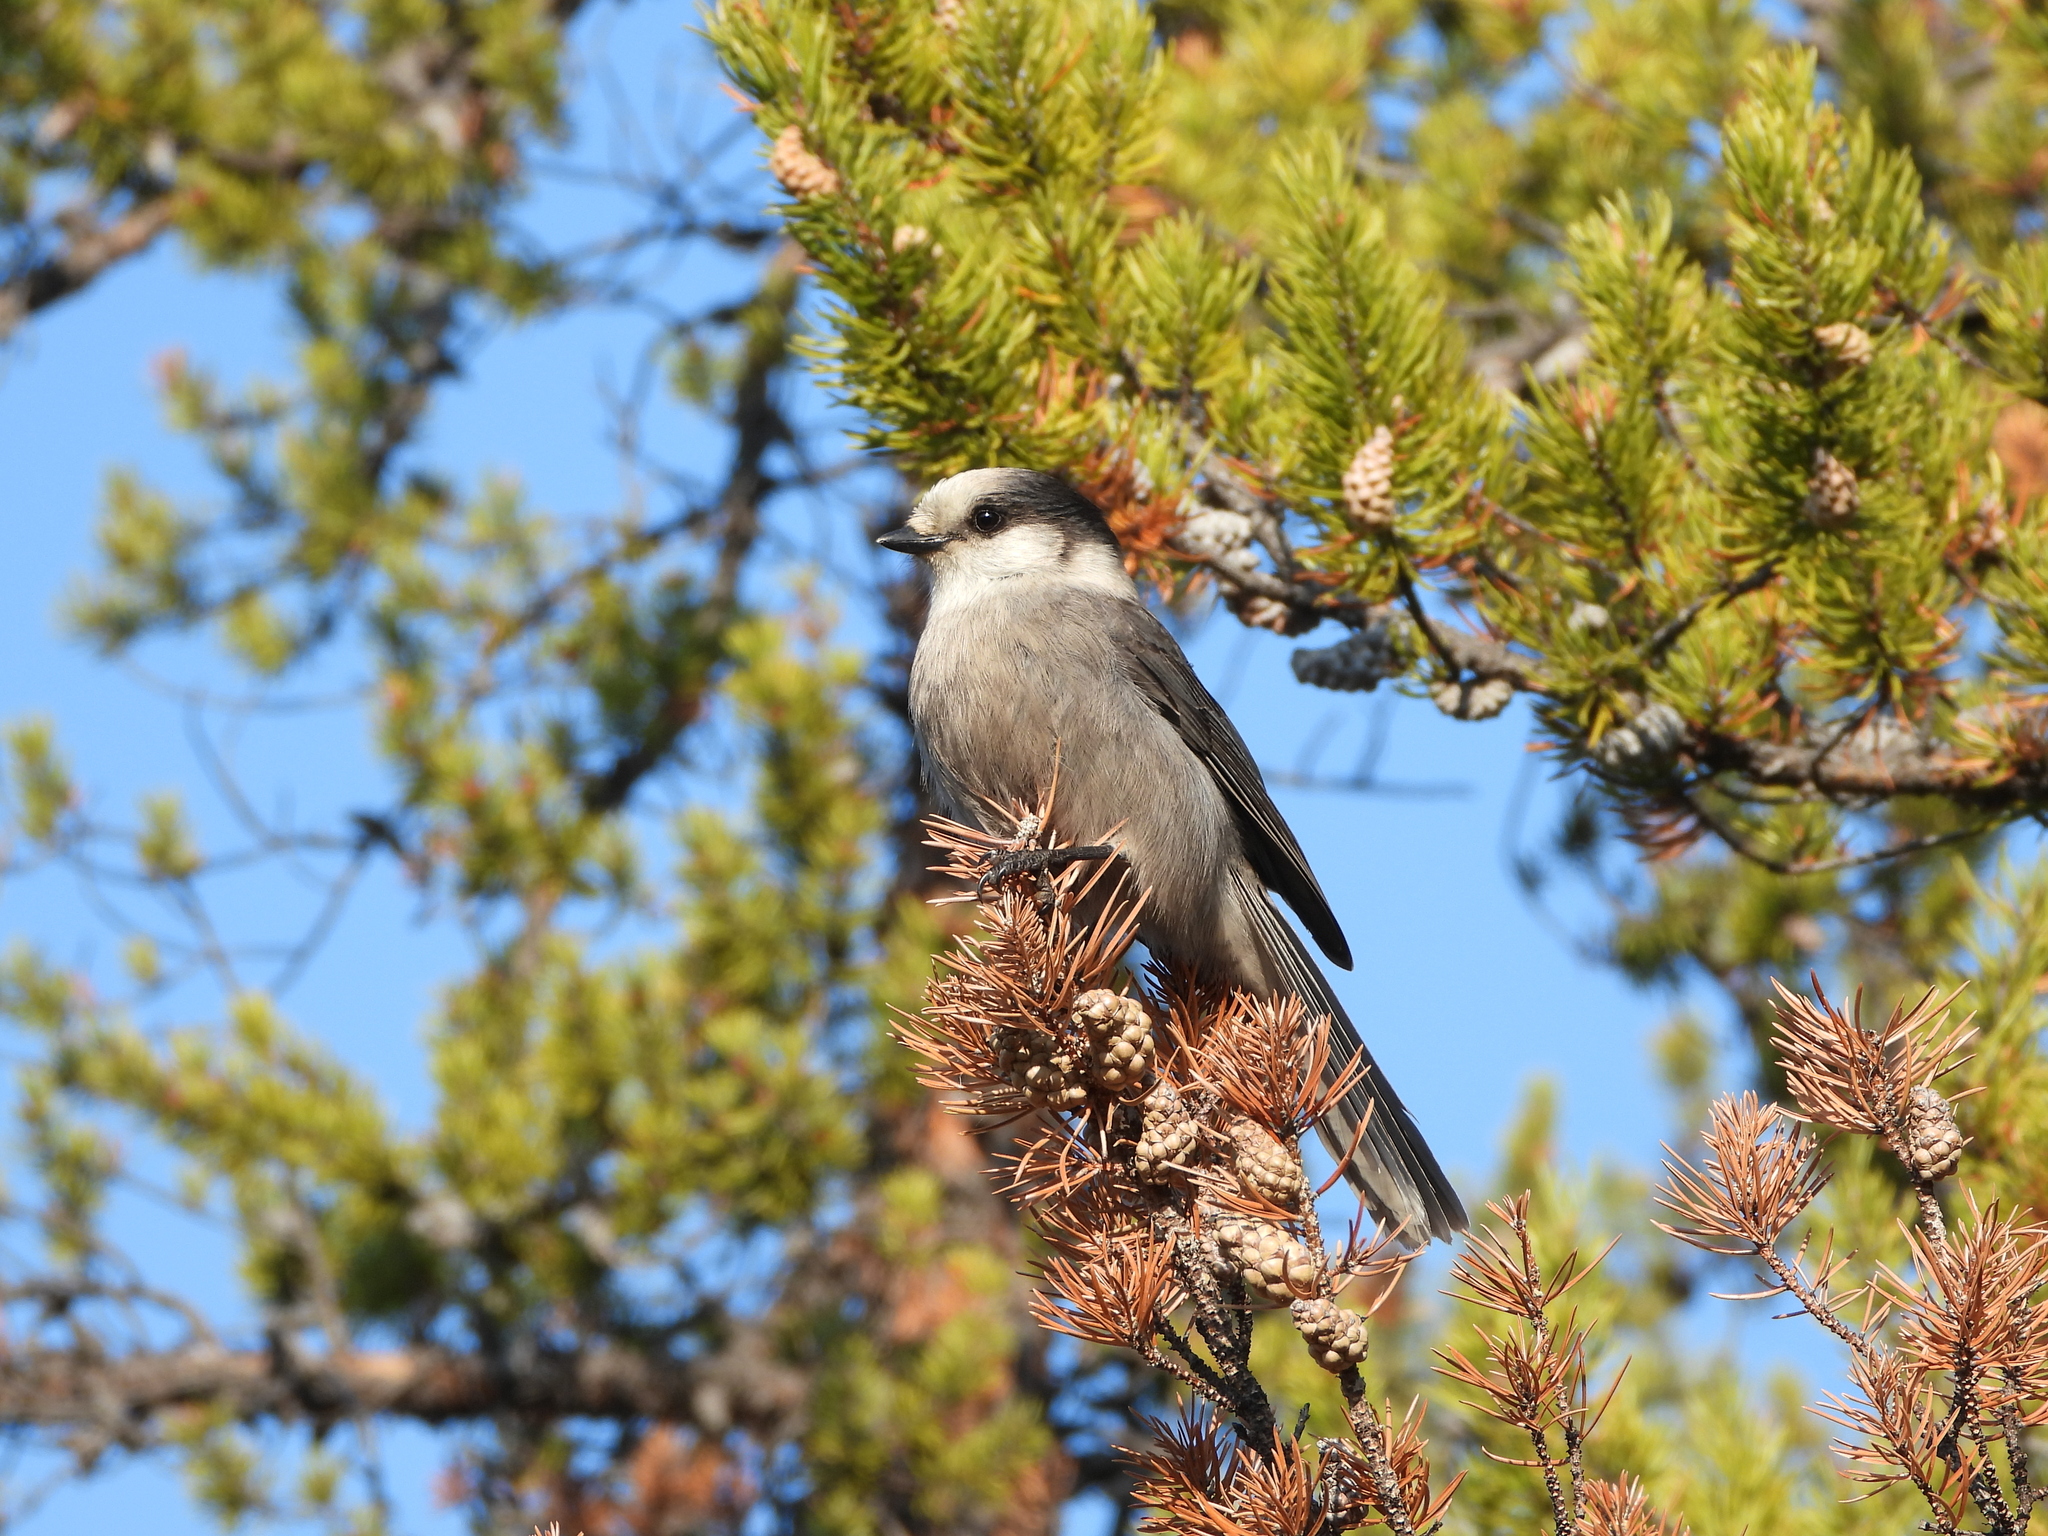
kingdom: Animalia
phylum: Chordata
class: Aves
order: Passeriformes
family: Corvidae
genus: Perisoreus
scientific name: Perisoreus canadensis
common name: Gray jay
